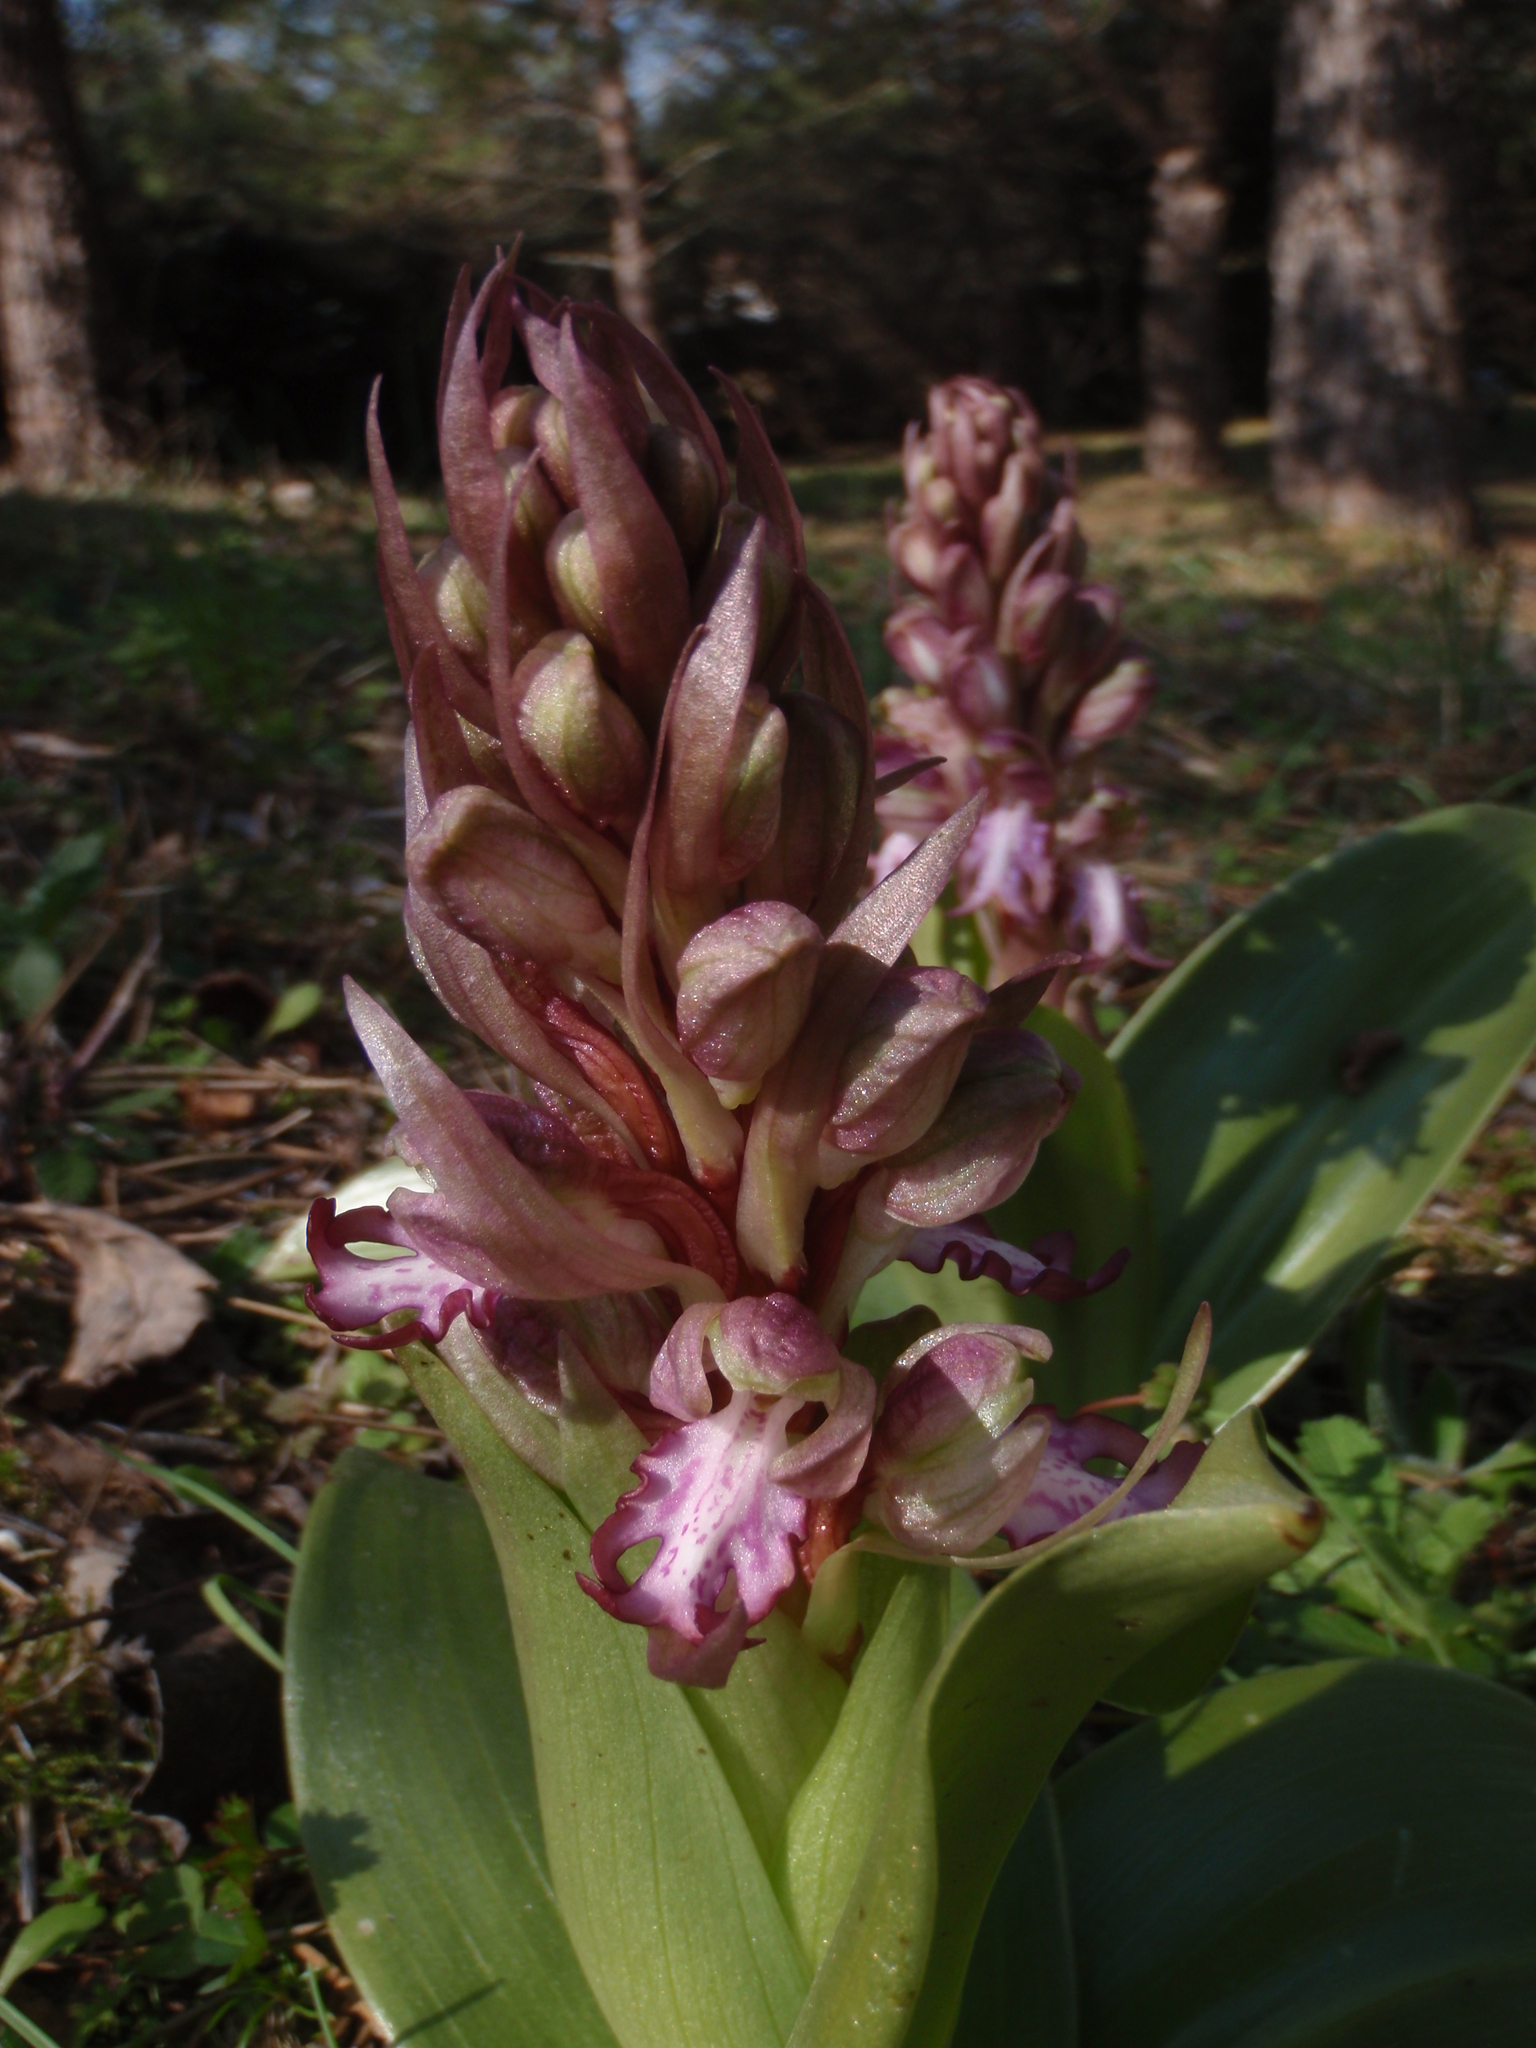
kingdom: Plantae
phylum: Tracheophyta
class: Liliopsida
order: Asparagales
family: Orchidaceae
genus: Himantoglossum
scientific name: Himantoglossum robertianum
